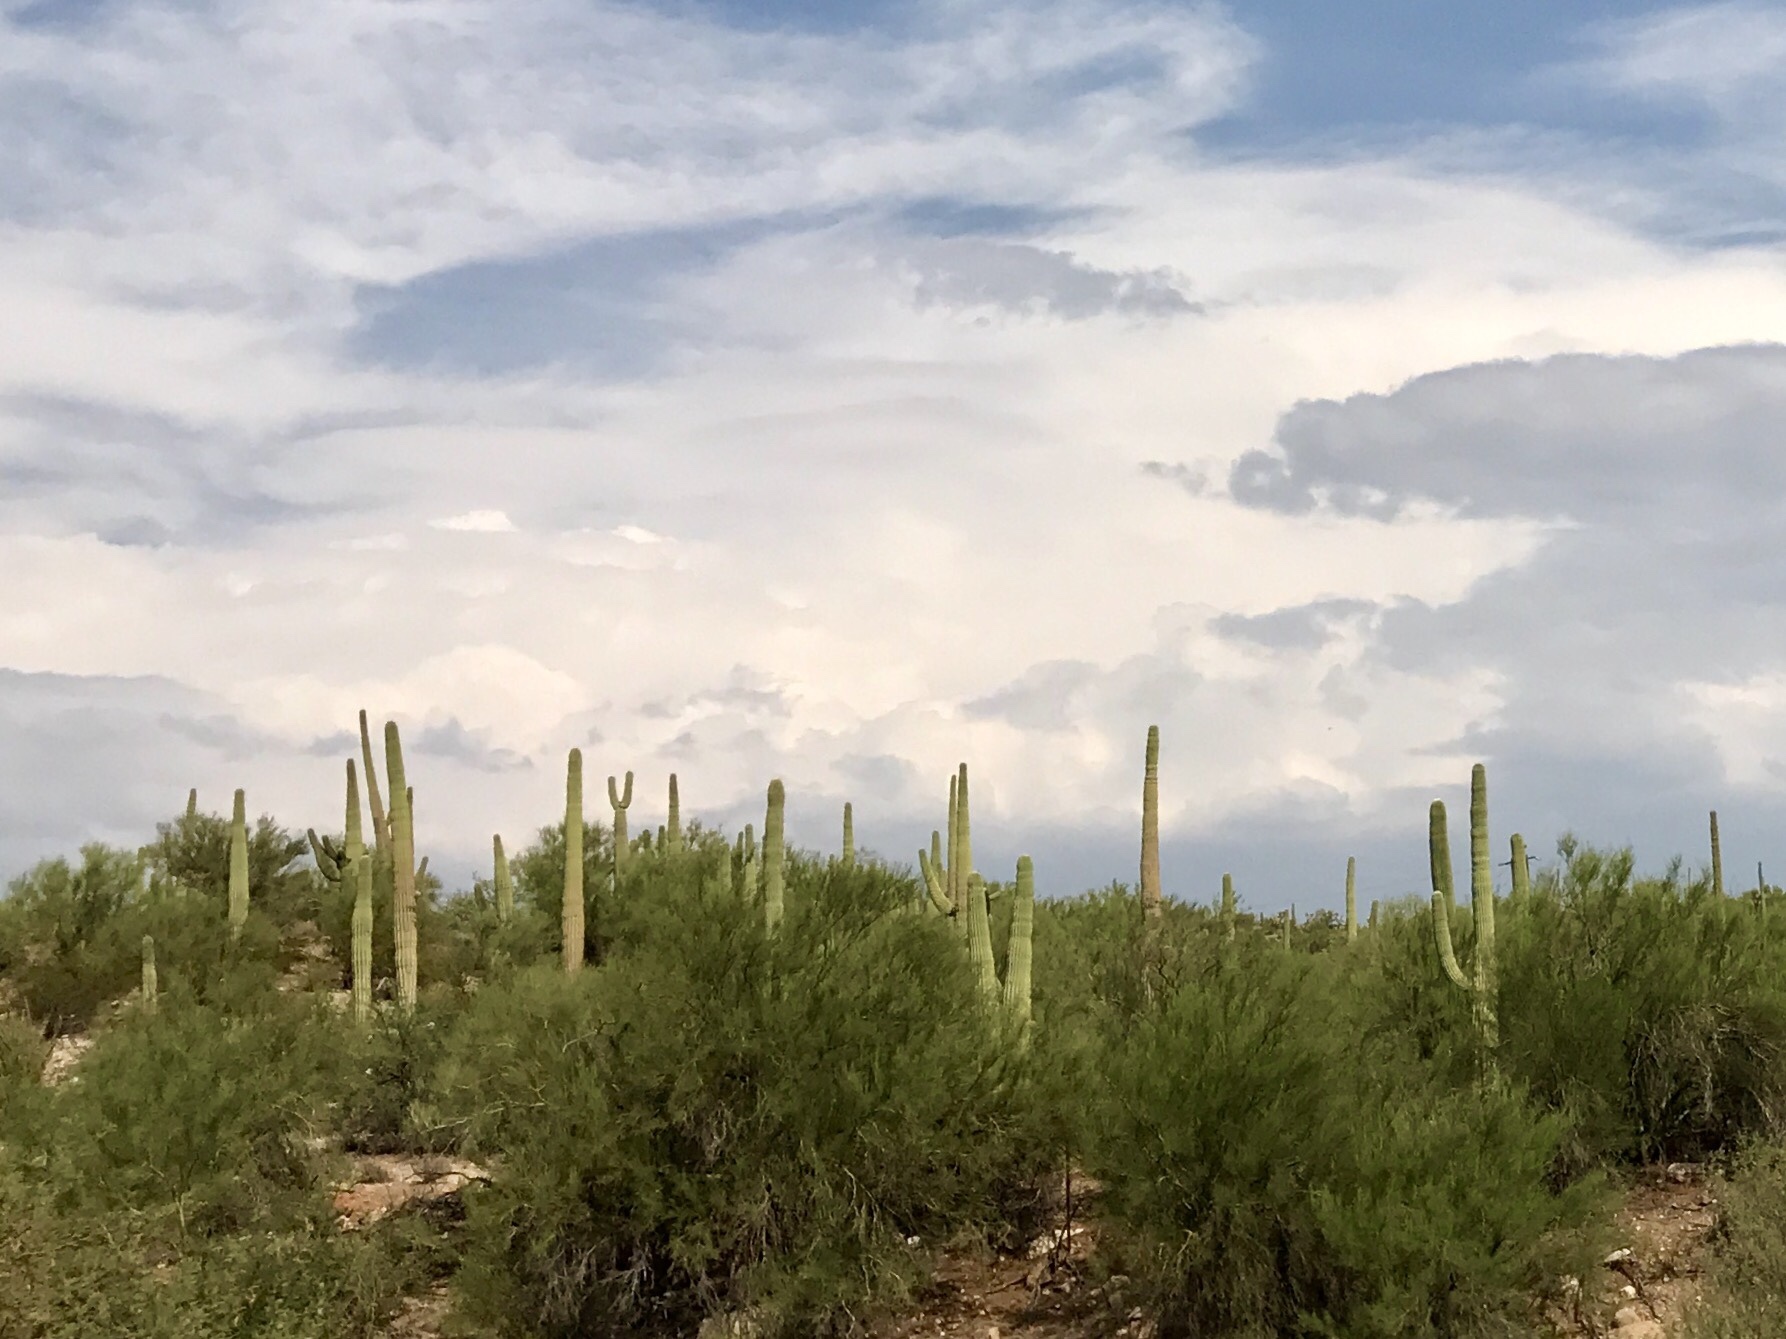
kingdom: Plantae
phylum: Tracheophyta
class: Magnoliopsida
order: Caryophyllales
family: Cactaceae
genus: Carnegiea
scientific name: Carnegiea gigantea
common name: Saguaro
